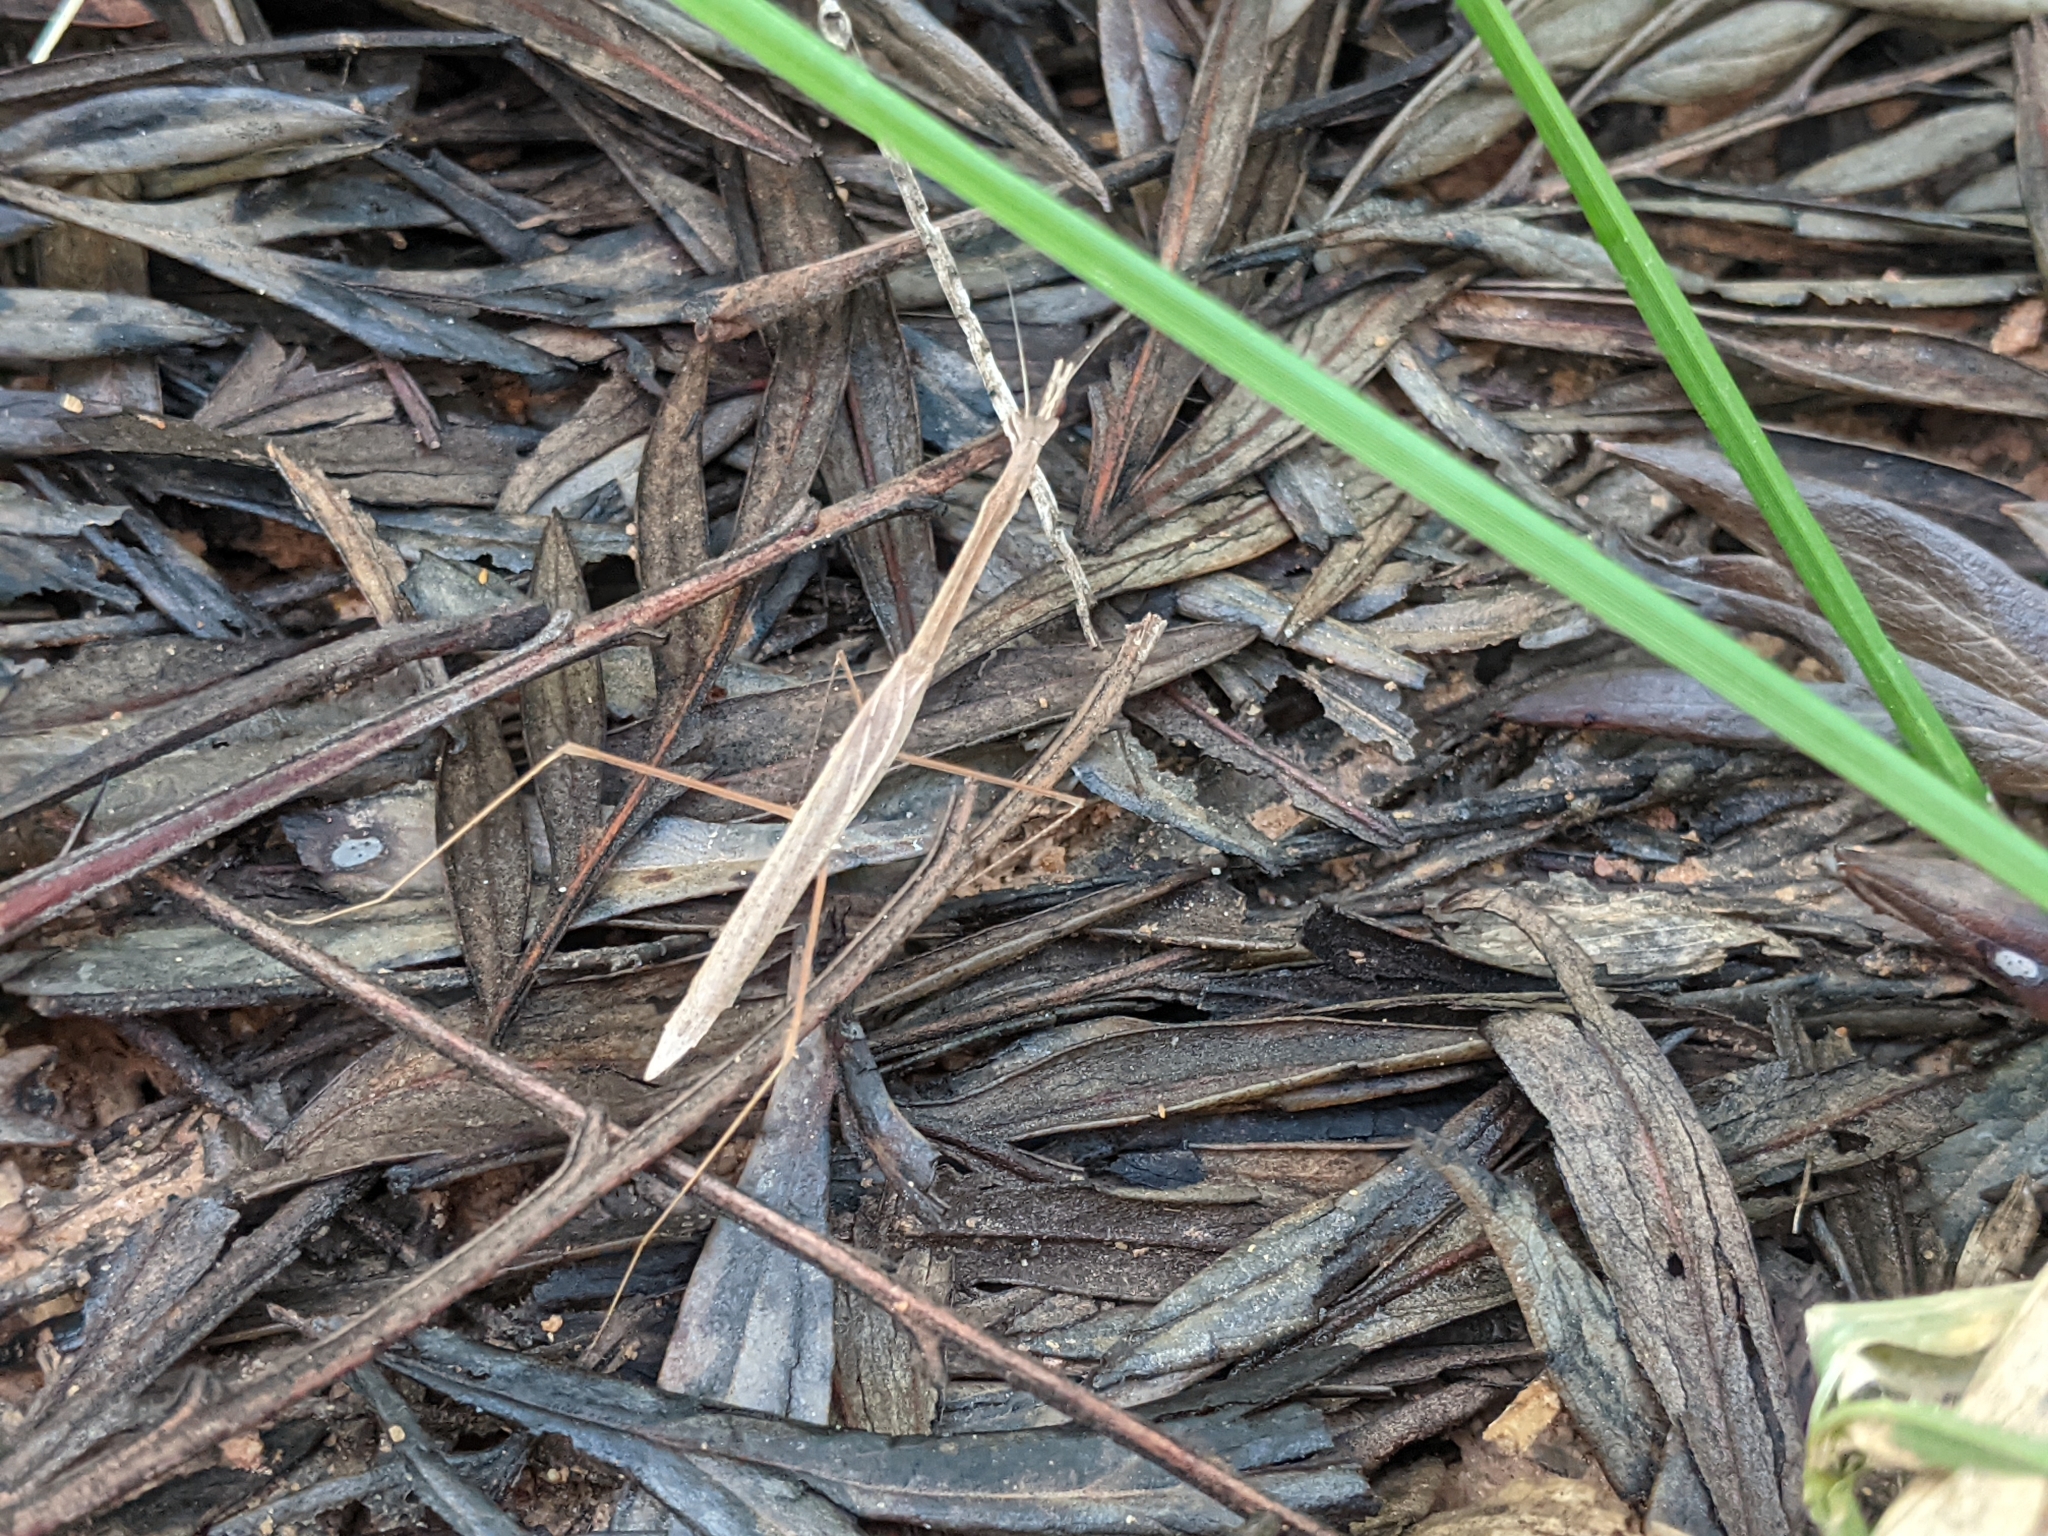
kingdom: Animalia
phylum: Arthropoda
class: Insecta
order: Mantodea
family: Eremiaphilidae
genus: Parathespis
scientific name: Parathespis humbertiana
